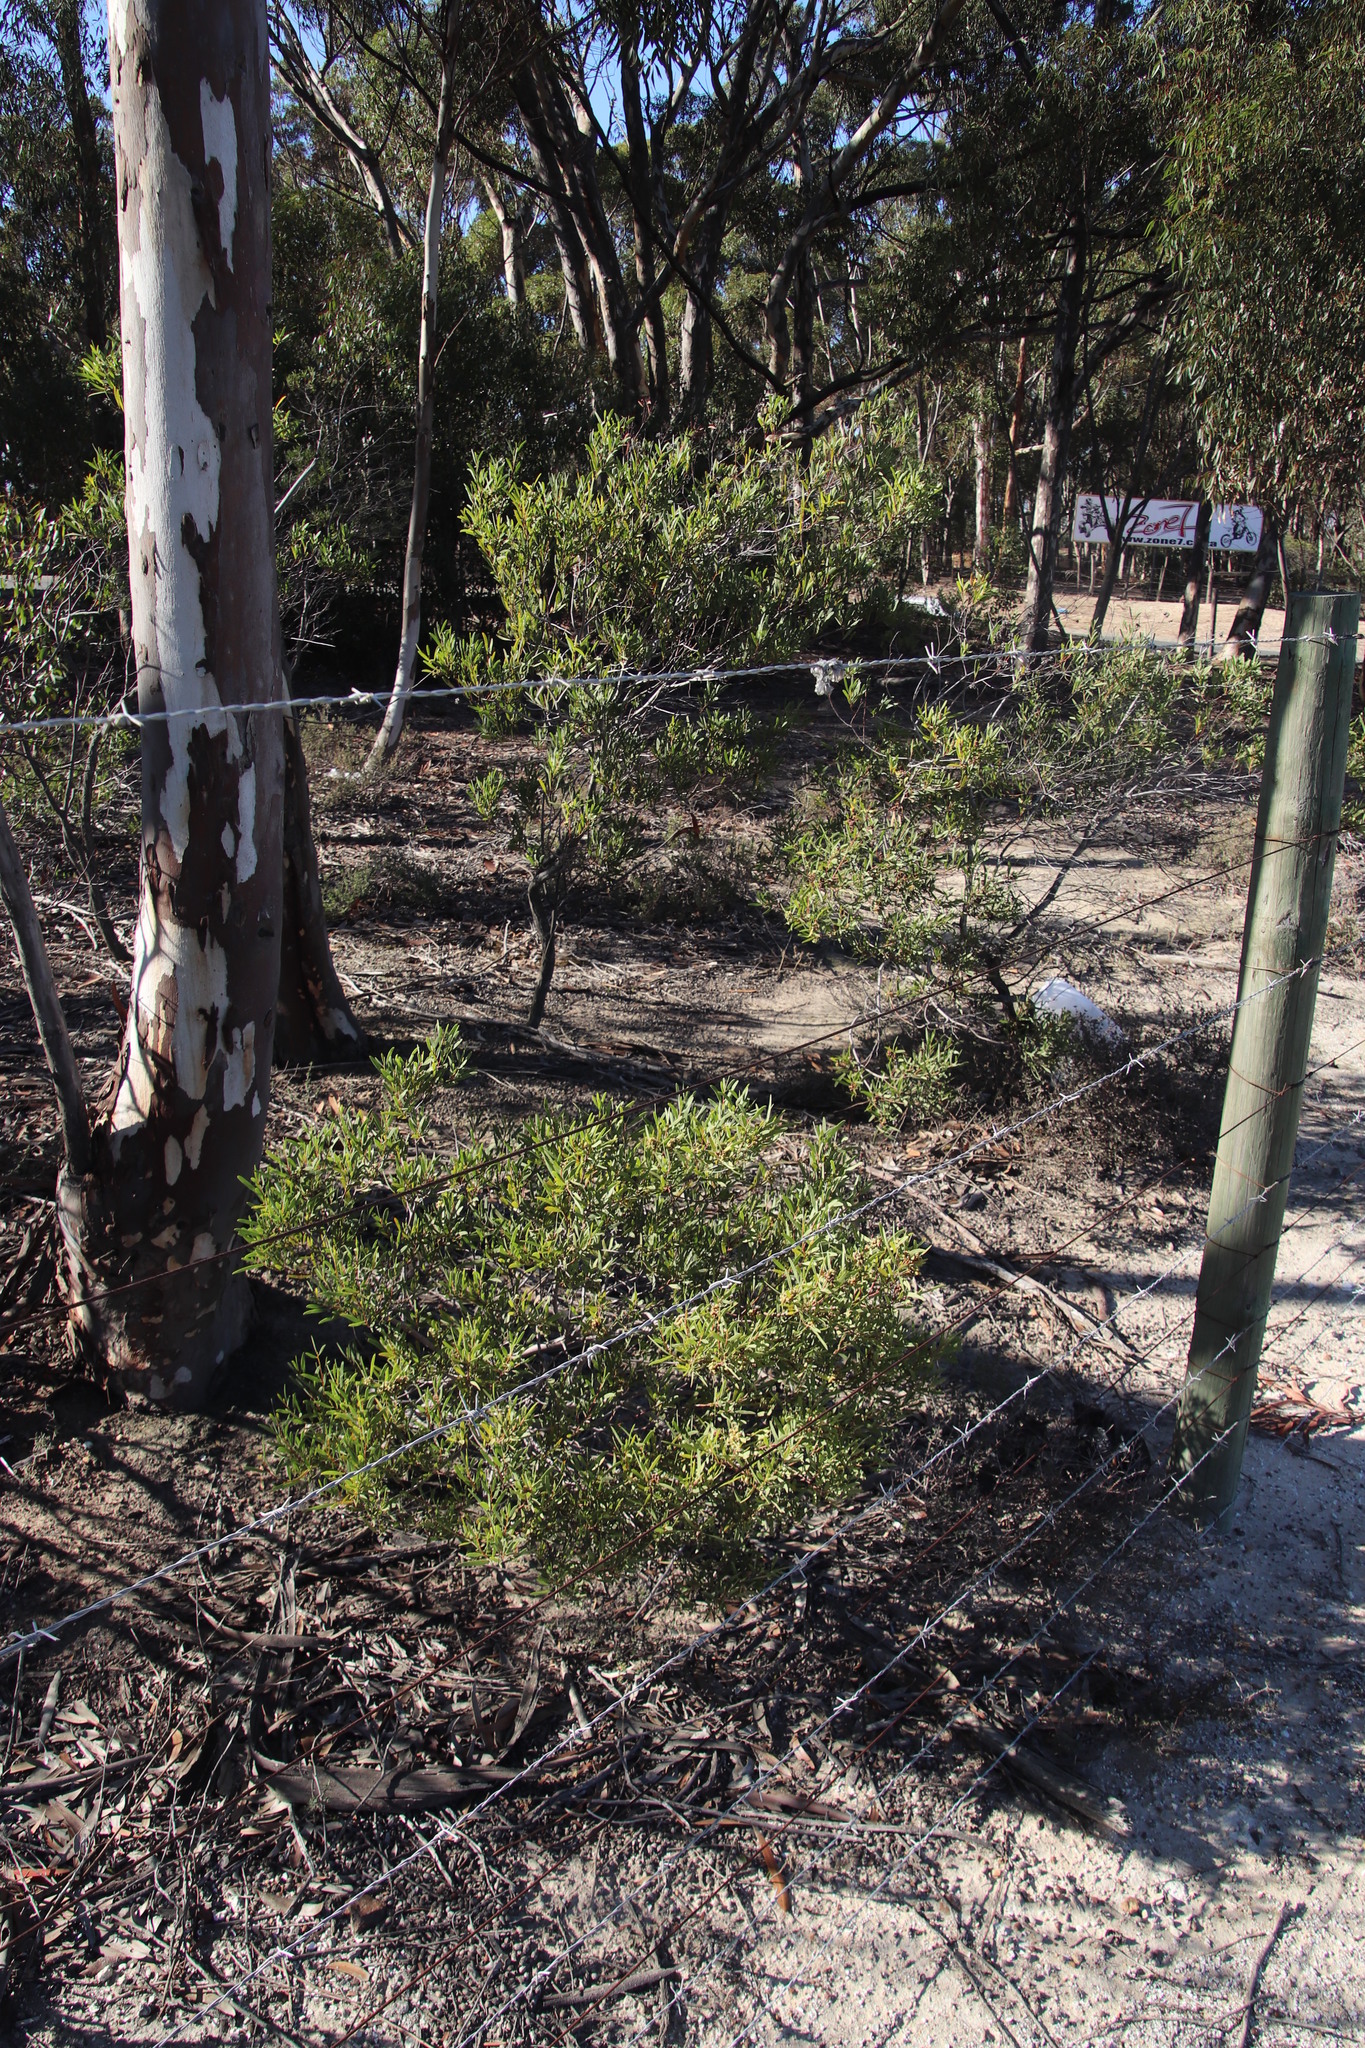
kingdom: Plantae
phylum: Tracheophyta
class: Magnoliopsida
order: Fabales
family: Fabaceae
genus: Acacia
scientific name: Acacia cyclops
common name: Coastal wattle
